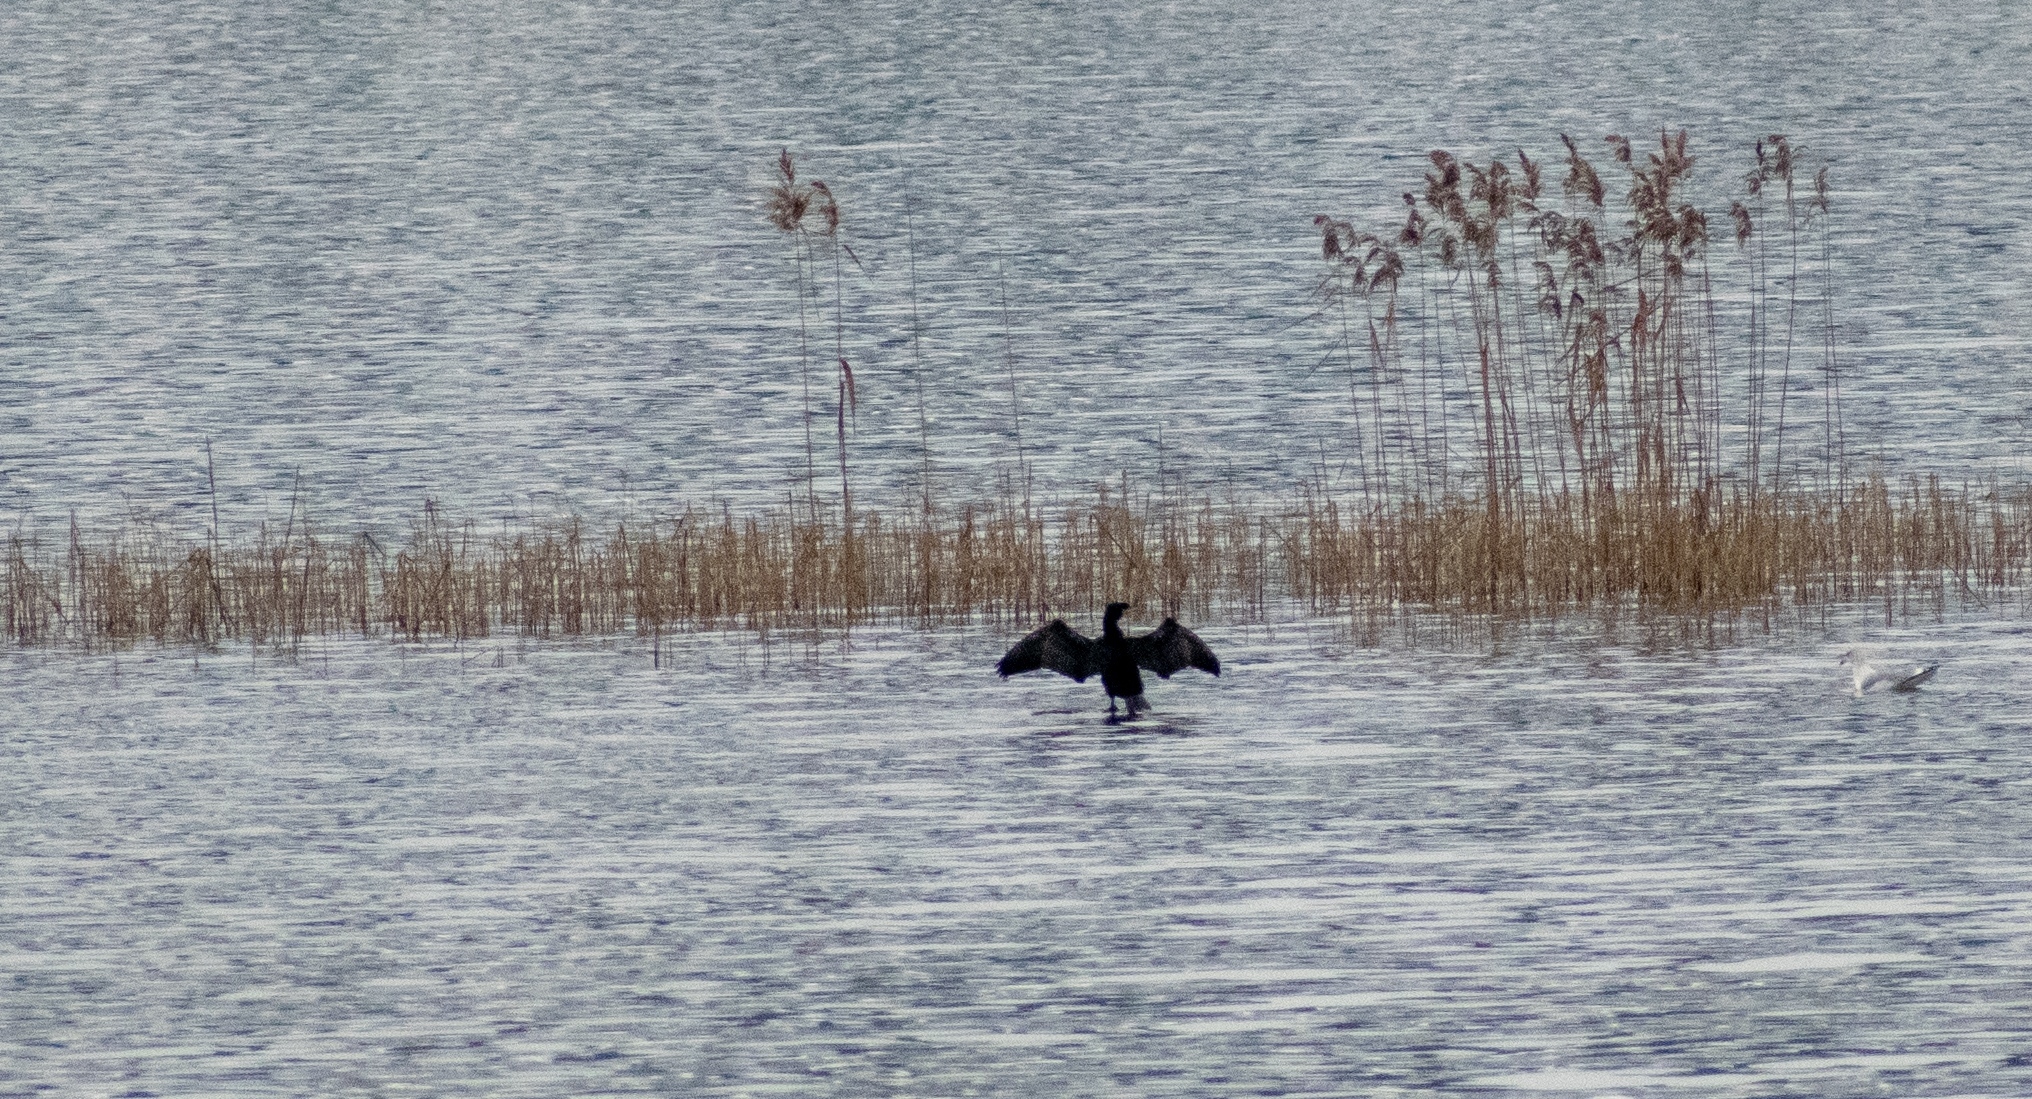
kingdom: Animalia
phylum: Chordata
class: Aves
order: Suliformes
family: Phalacrocoracidae
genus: Phalacrocorax
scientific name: Phalacrocorax carbo
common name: Great cormorant
